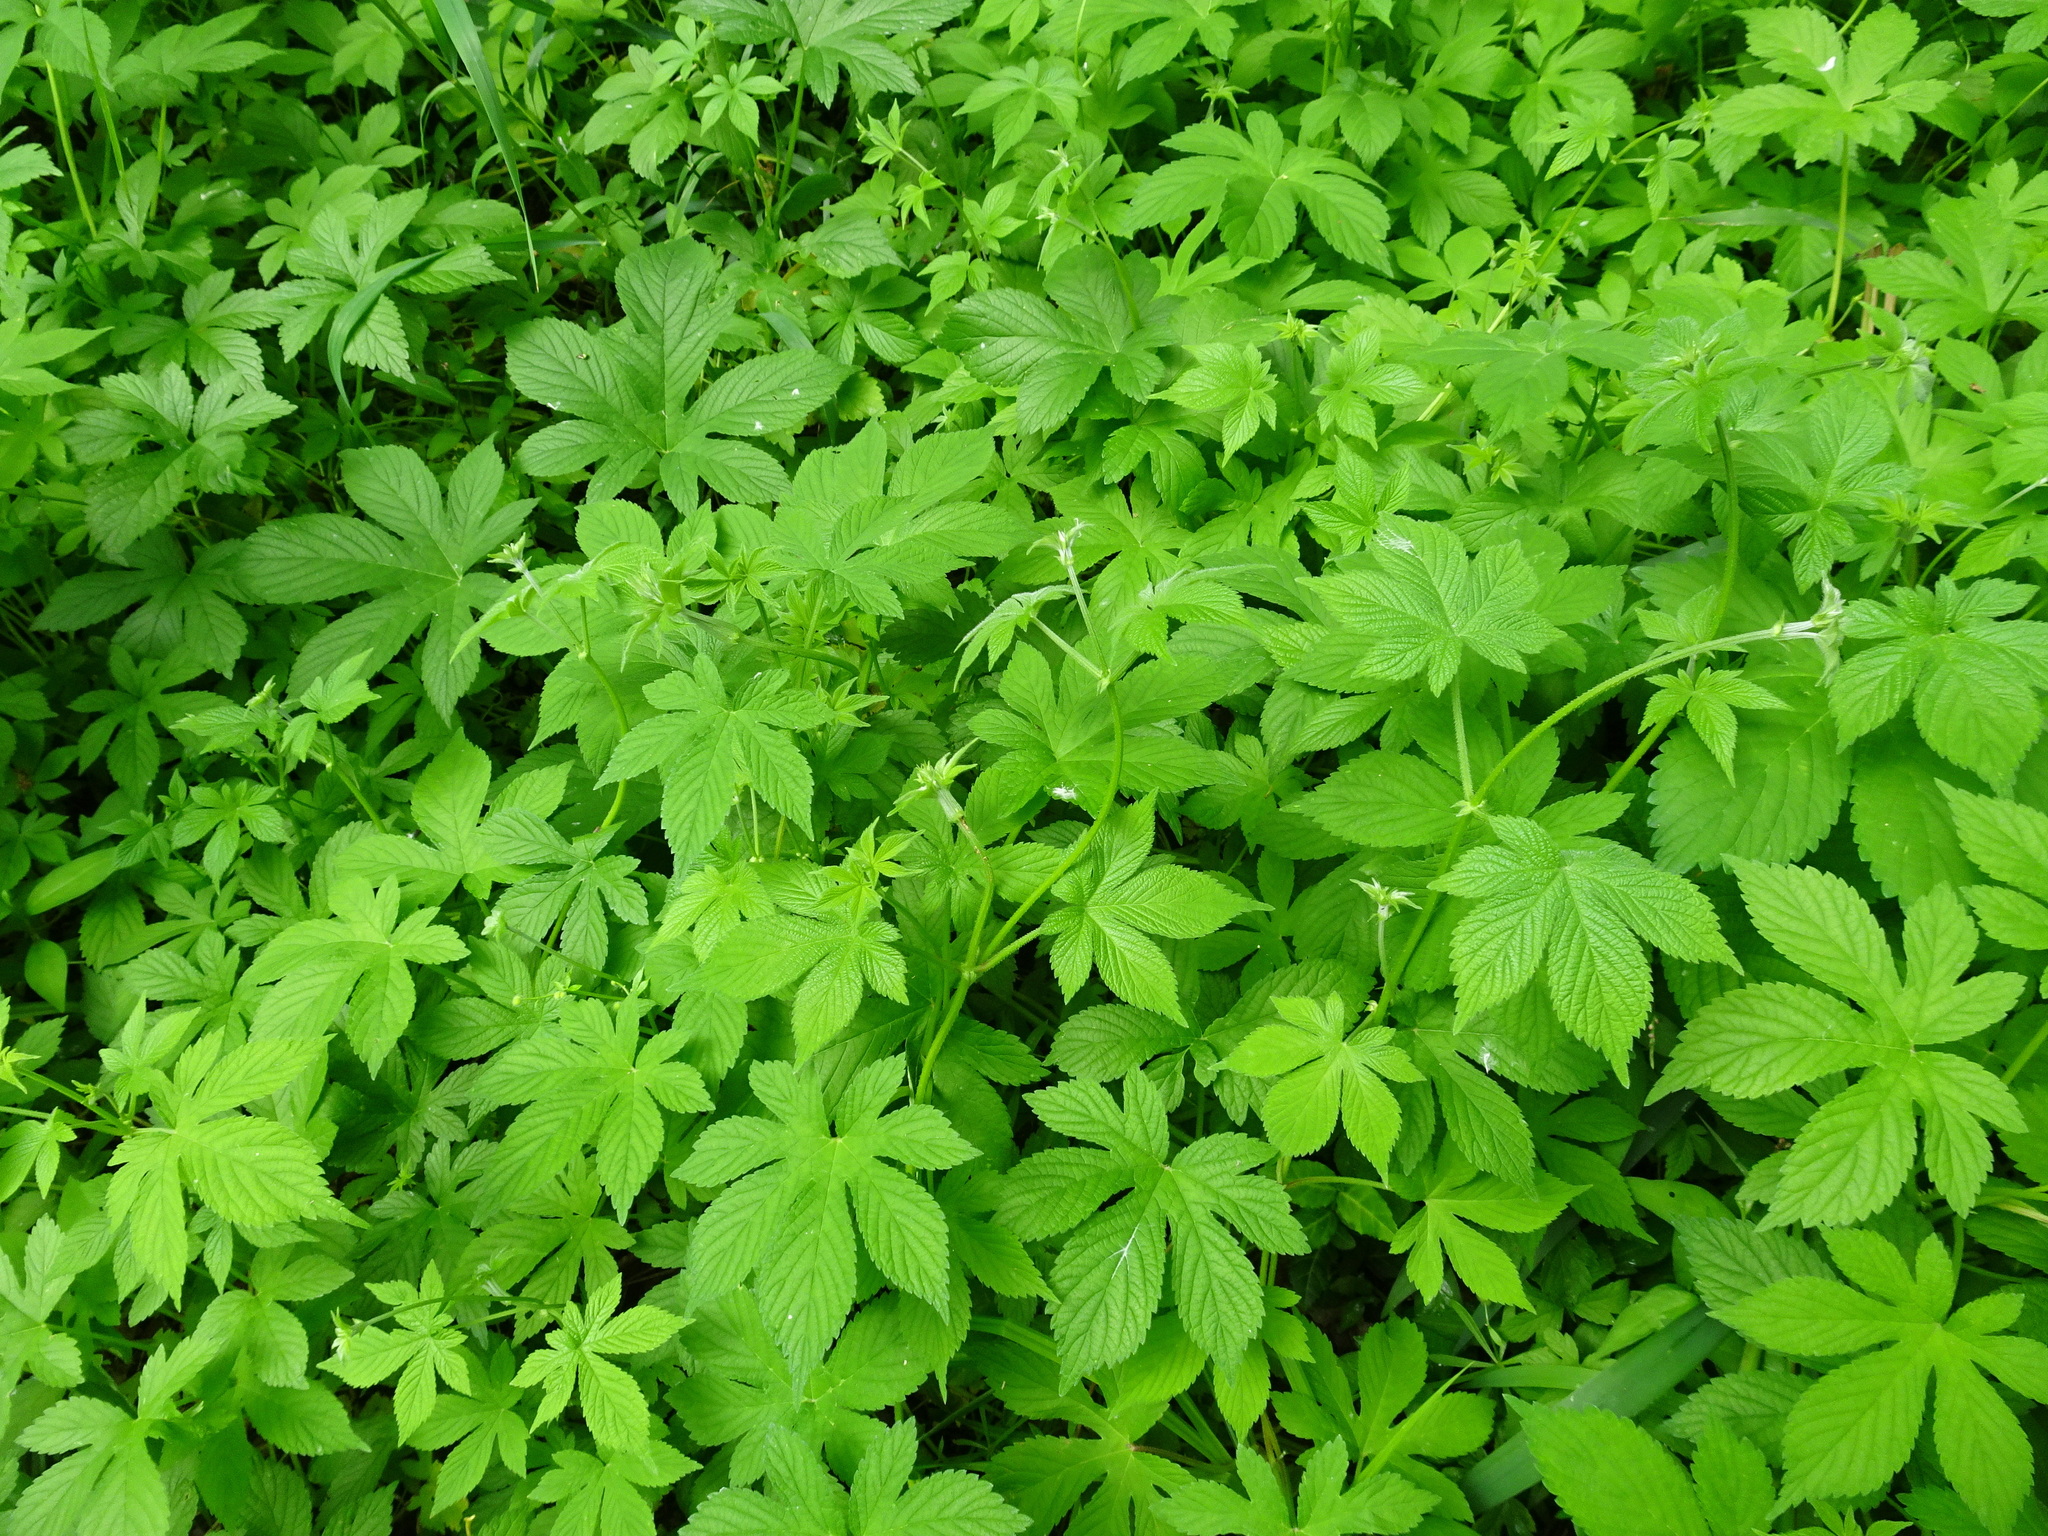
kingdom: Plantae
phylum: Tracheophyta
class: Magnoliopsida
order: Rosales
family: Cannabaceae
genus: Humulus
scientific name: Humulus scandens
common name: Japanese hop
